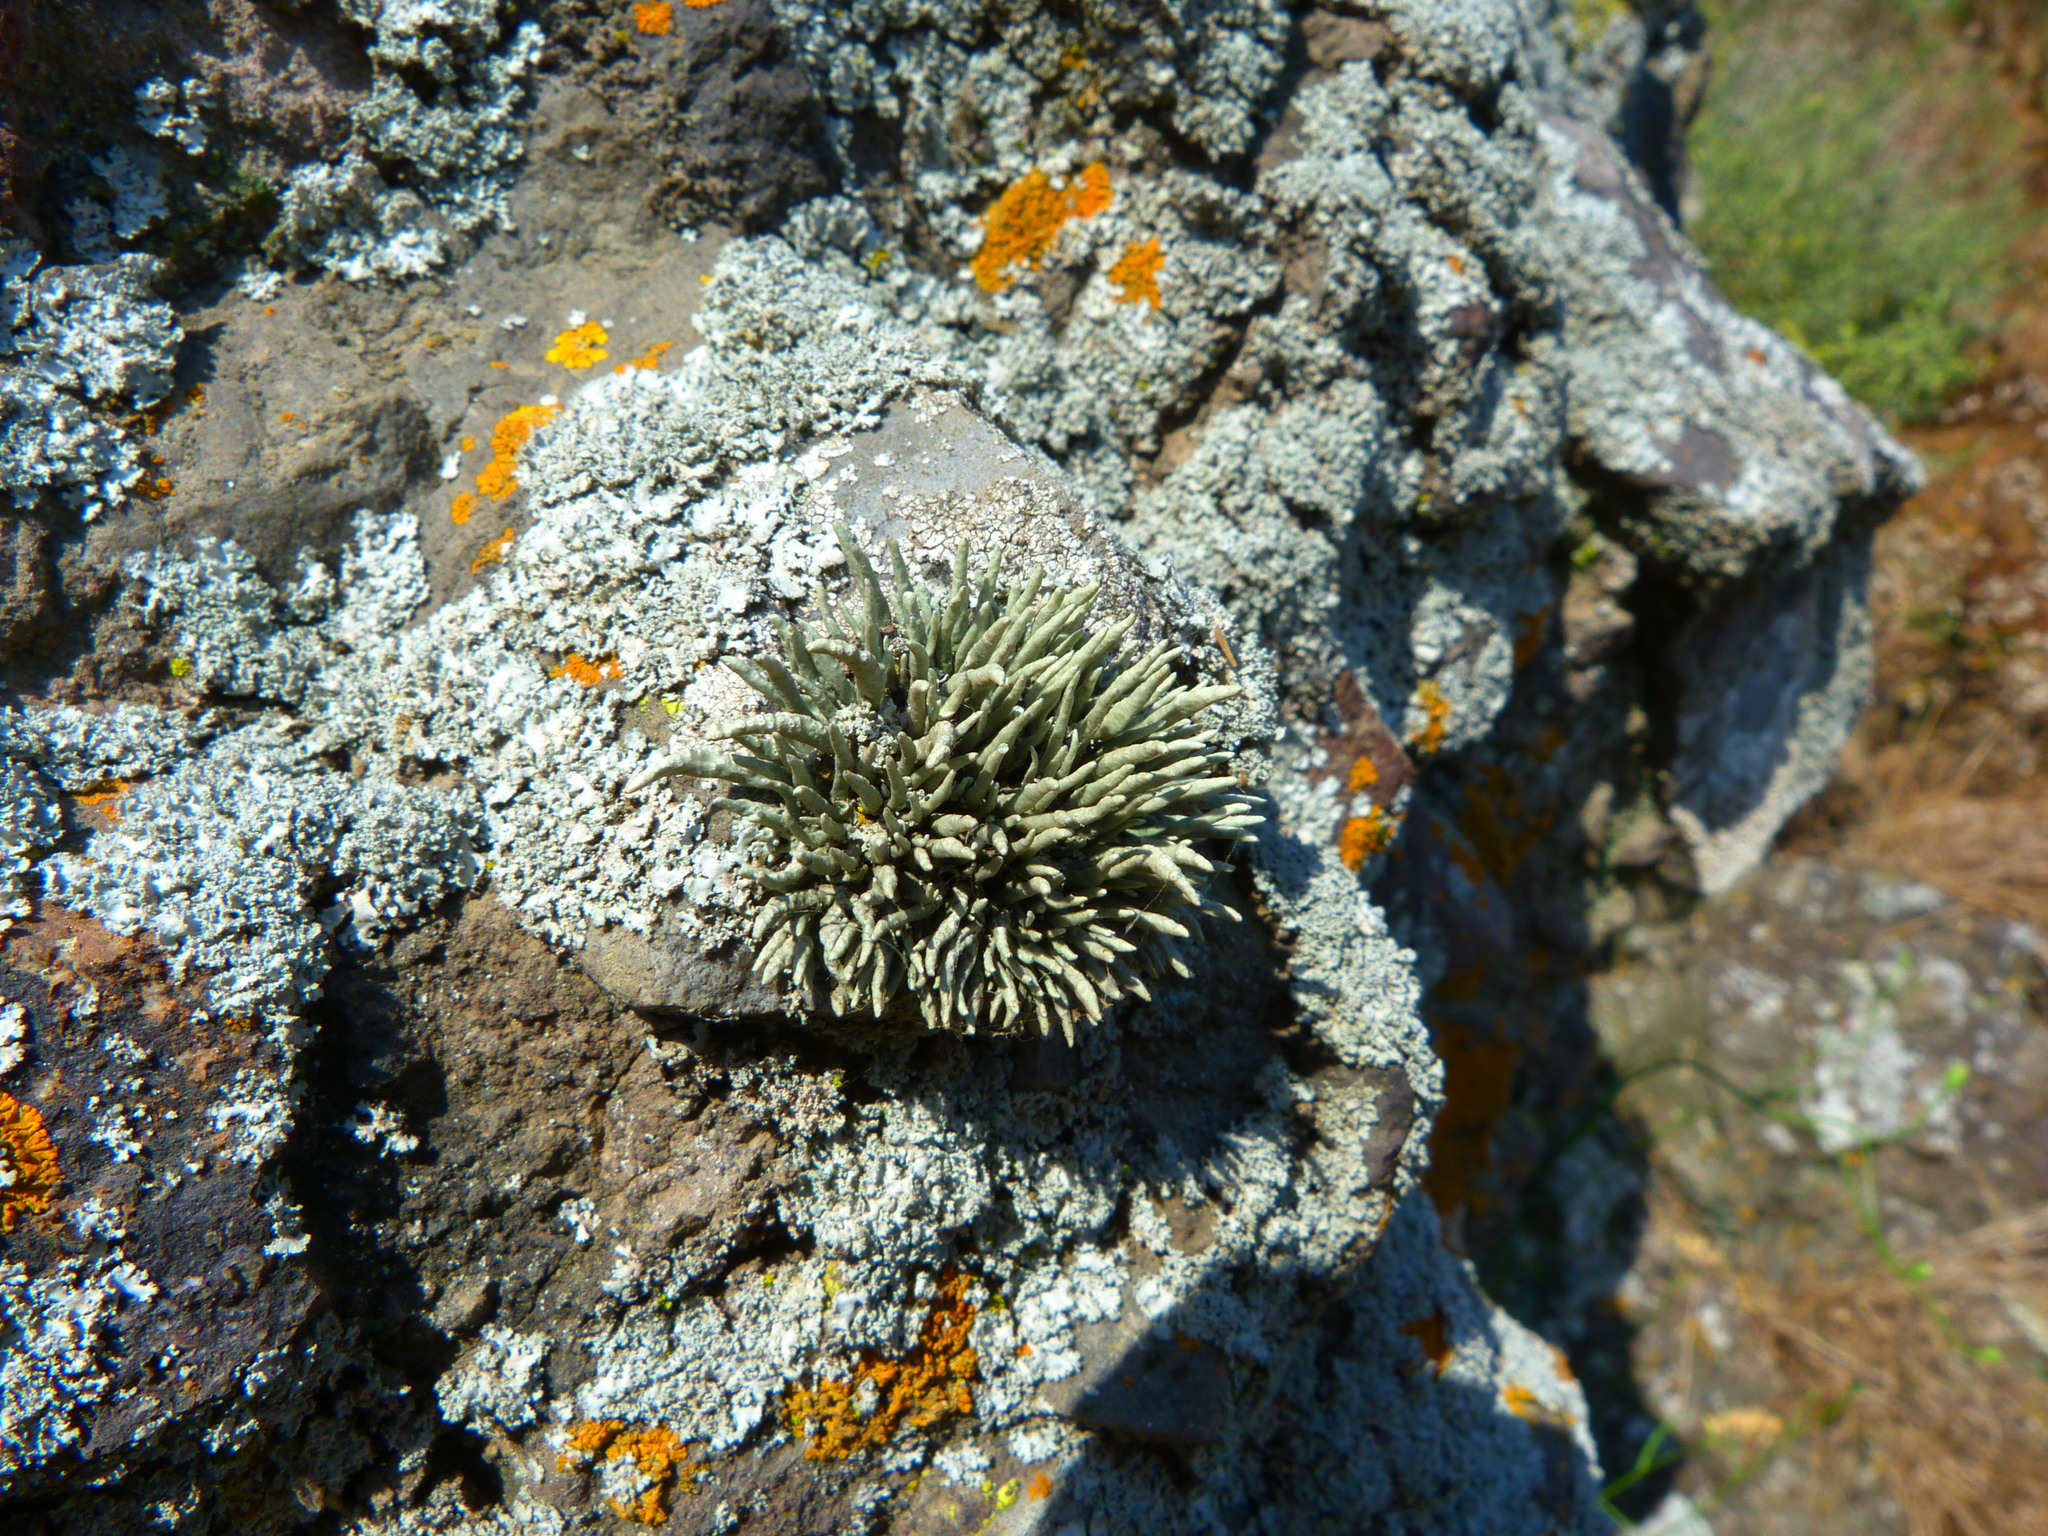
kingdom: Fungi
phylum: Ascomycota
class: Lecanoromycetes
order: Lecanorales
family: Ramalinaceae
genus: Niebla
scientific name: Niebla combeoides
